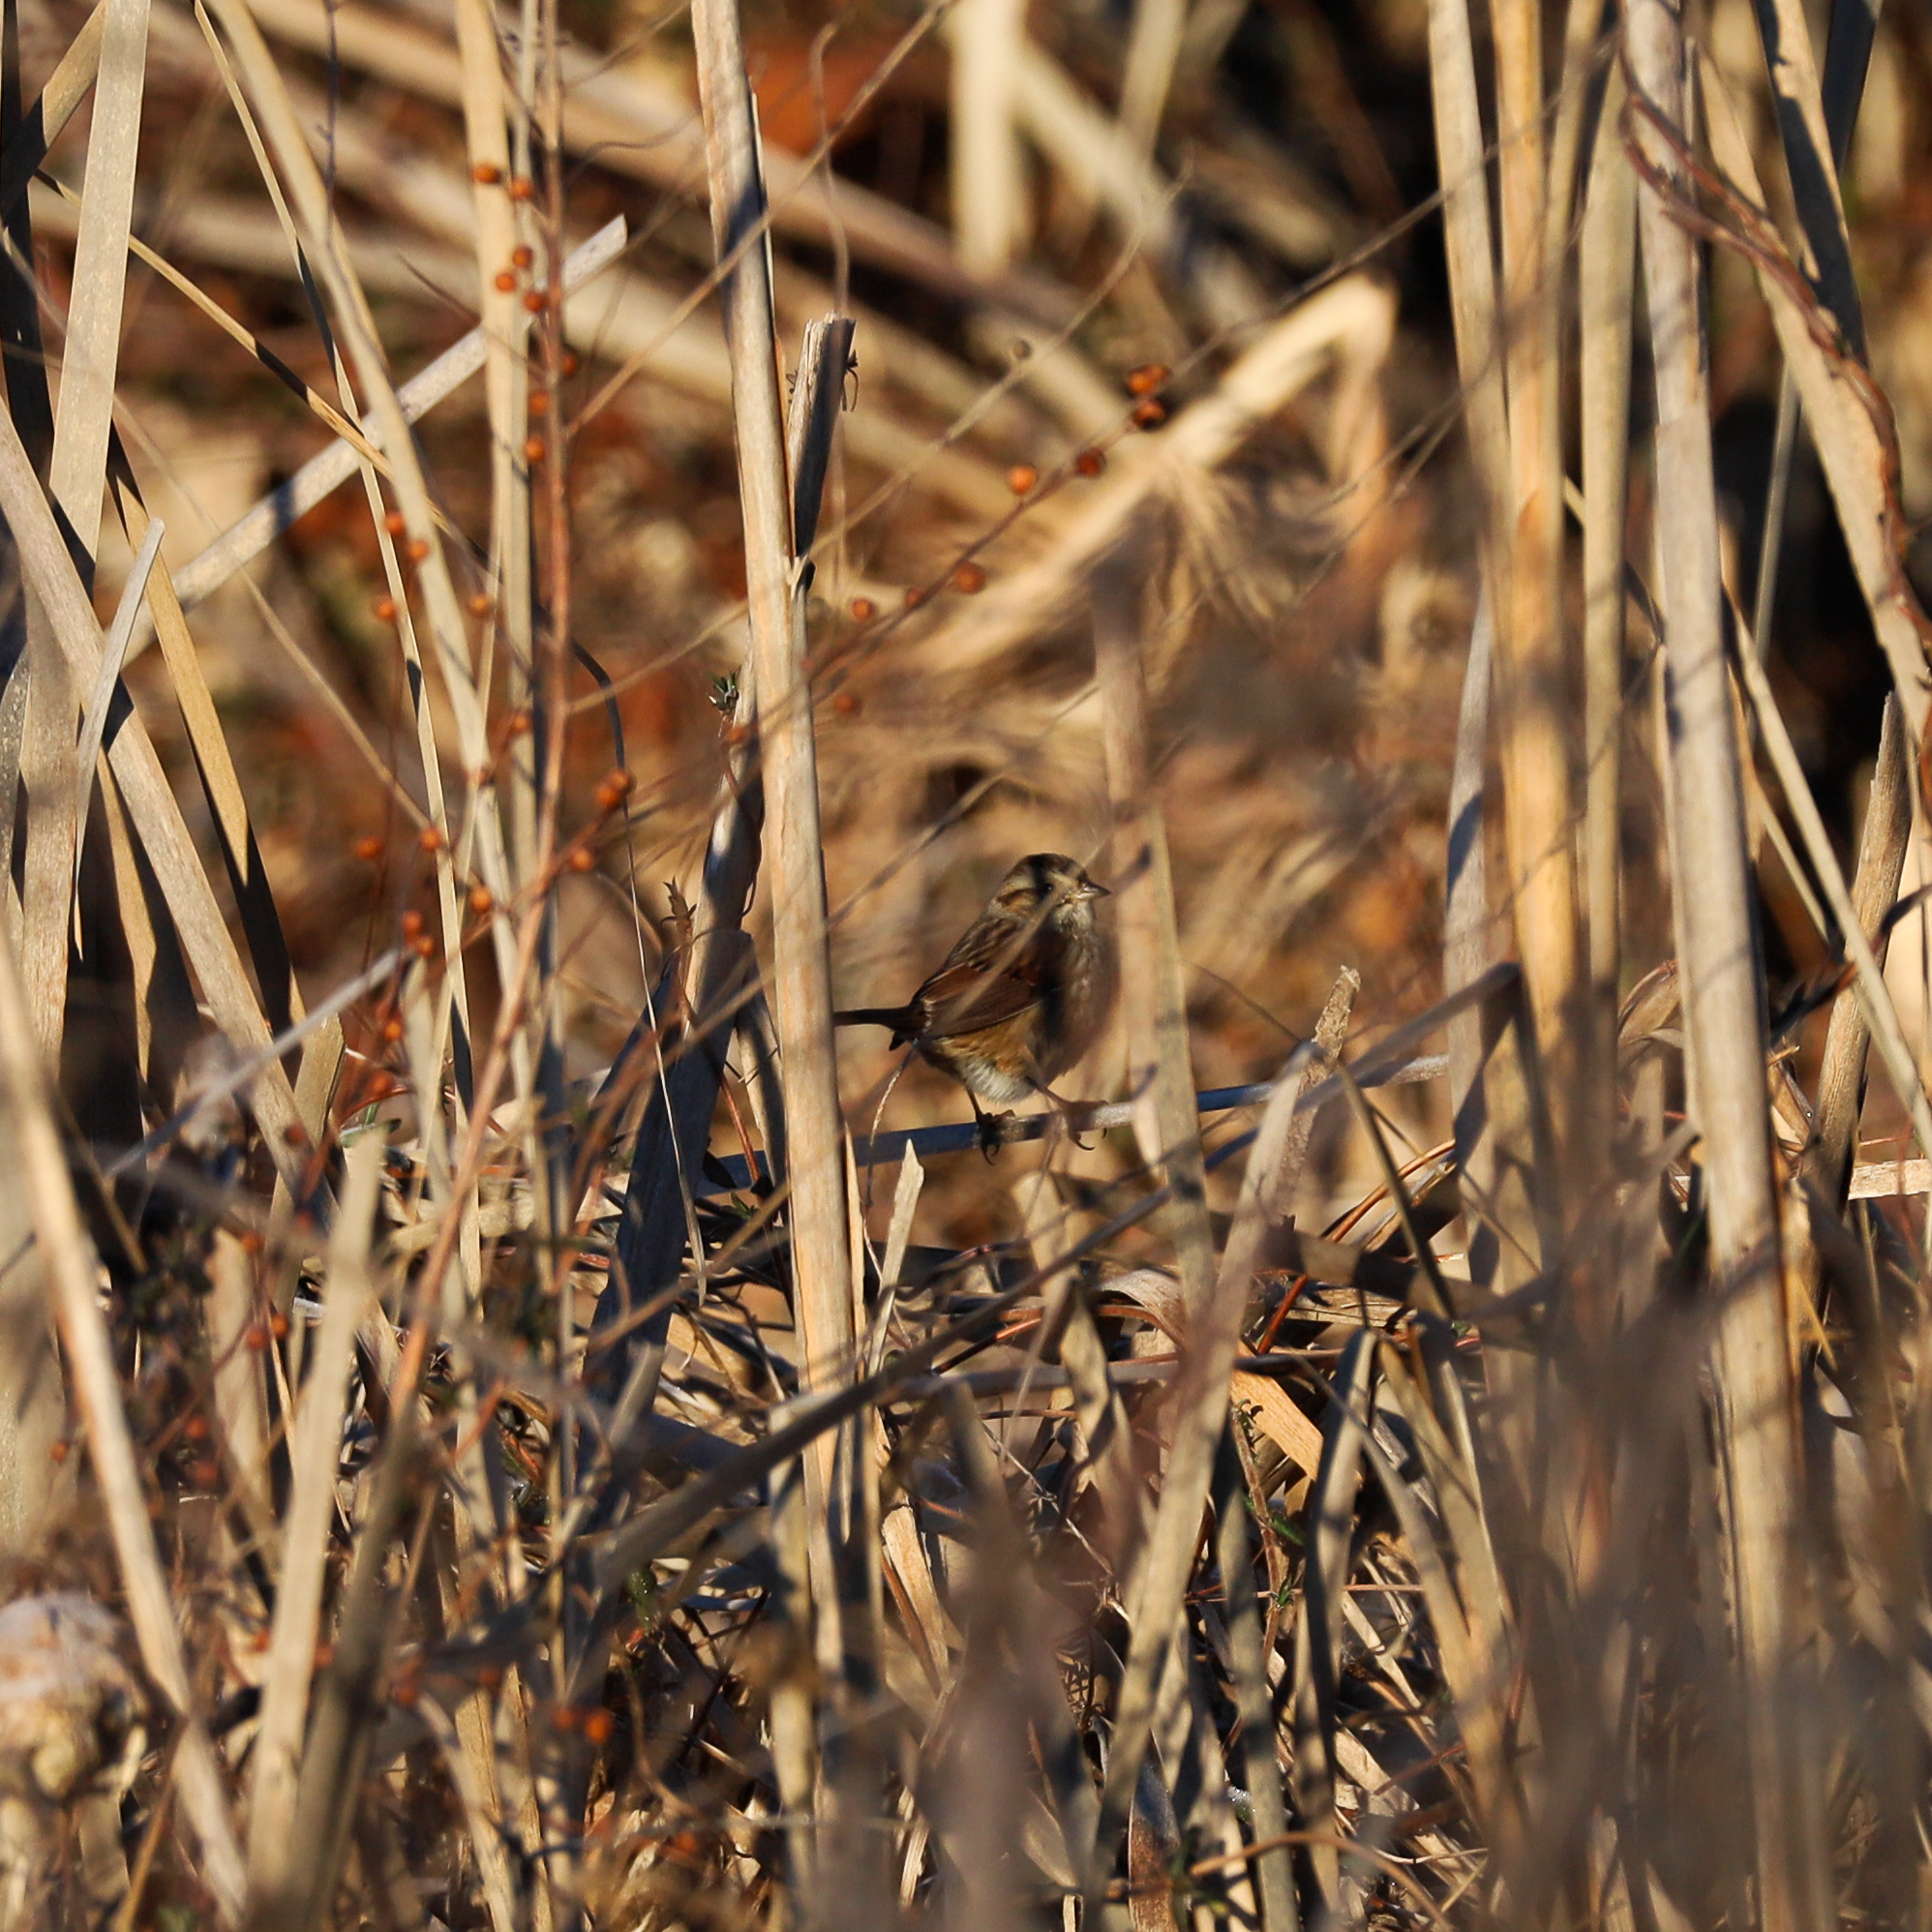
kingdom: Animalia
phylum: Chordata
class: Aves
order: Passeriformes
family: Passerellidae
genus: Melospiza
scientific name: Melospiza georgiana
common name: Swamp sparrow
